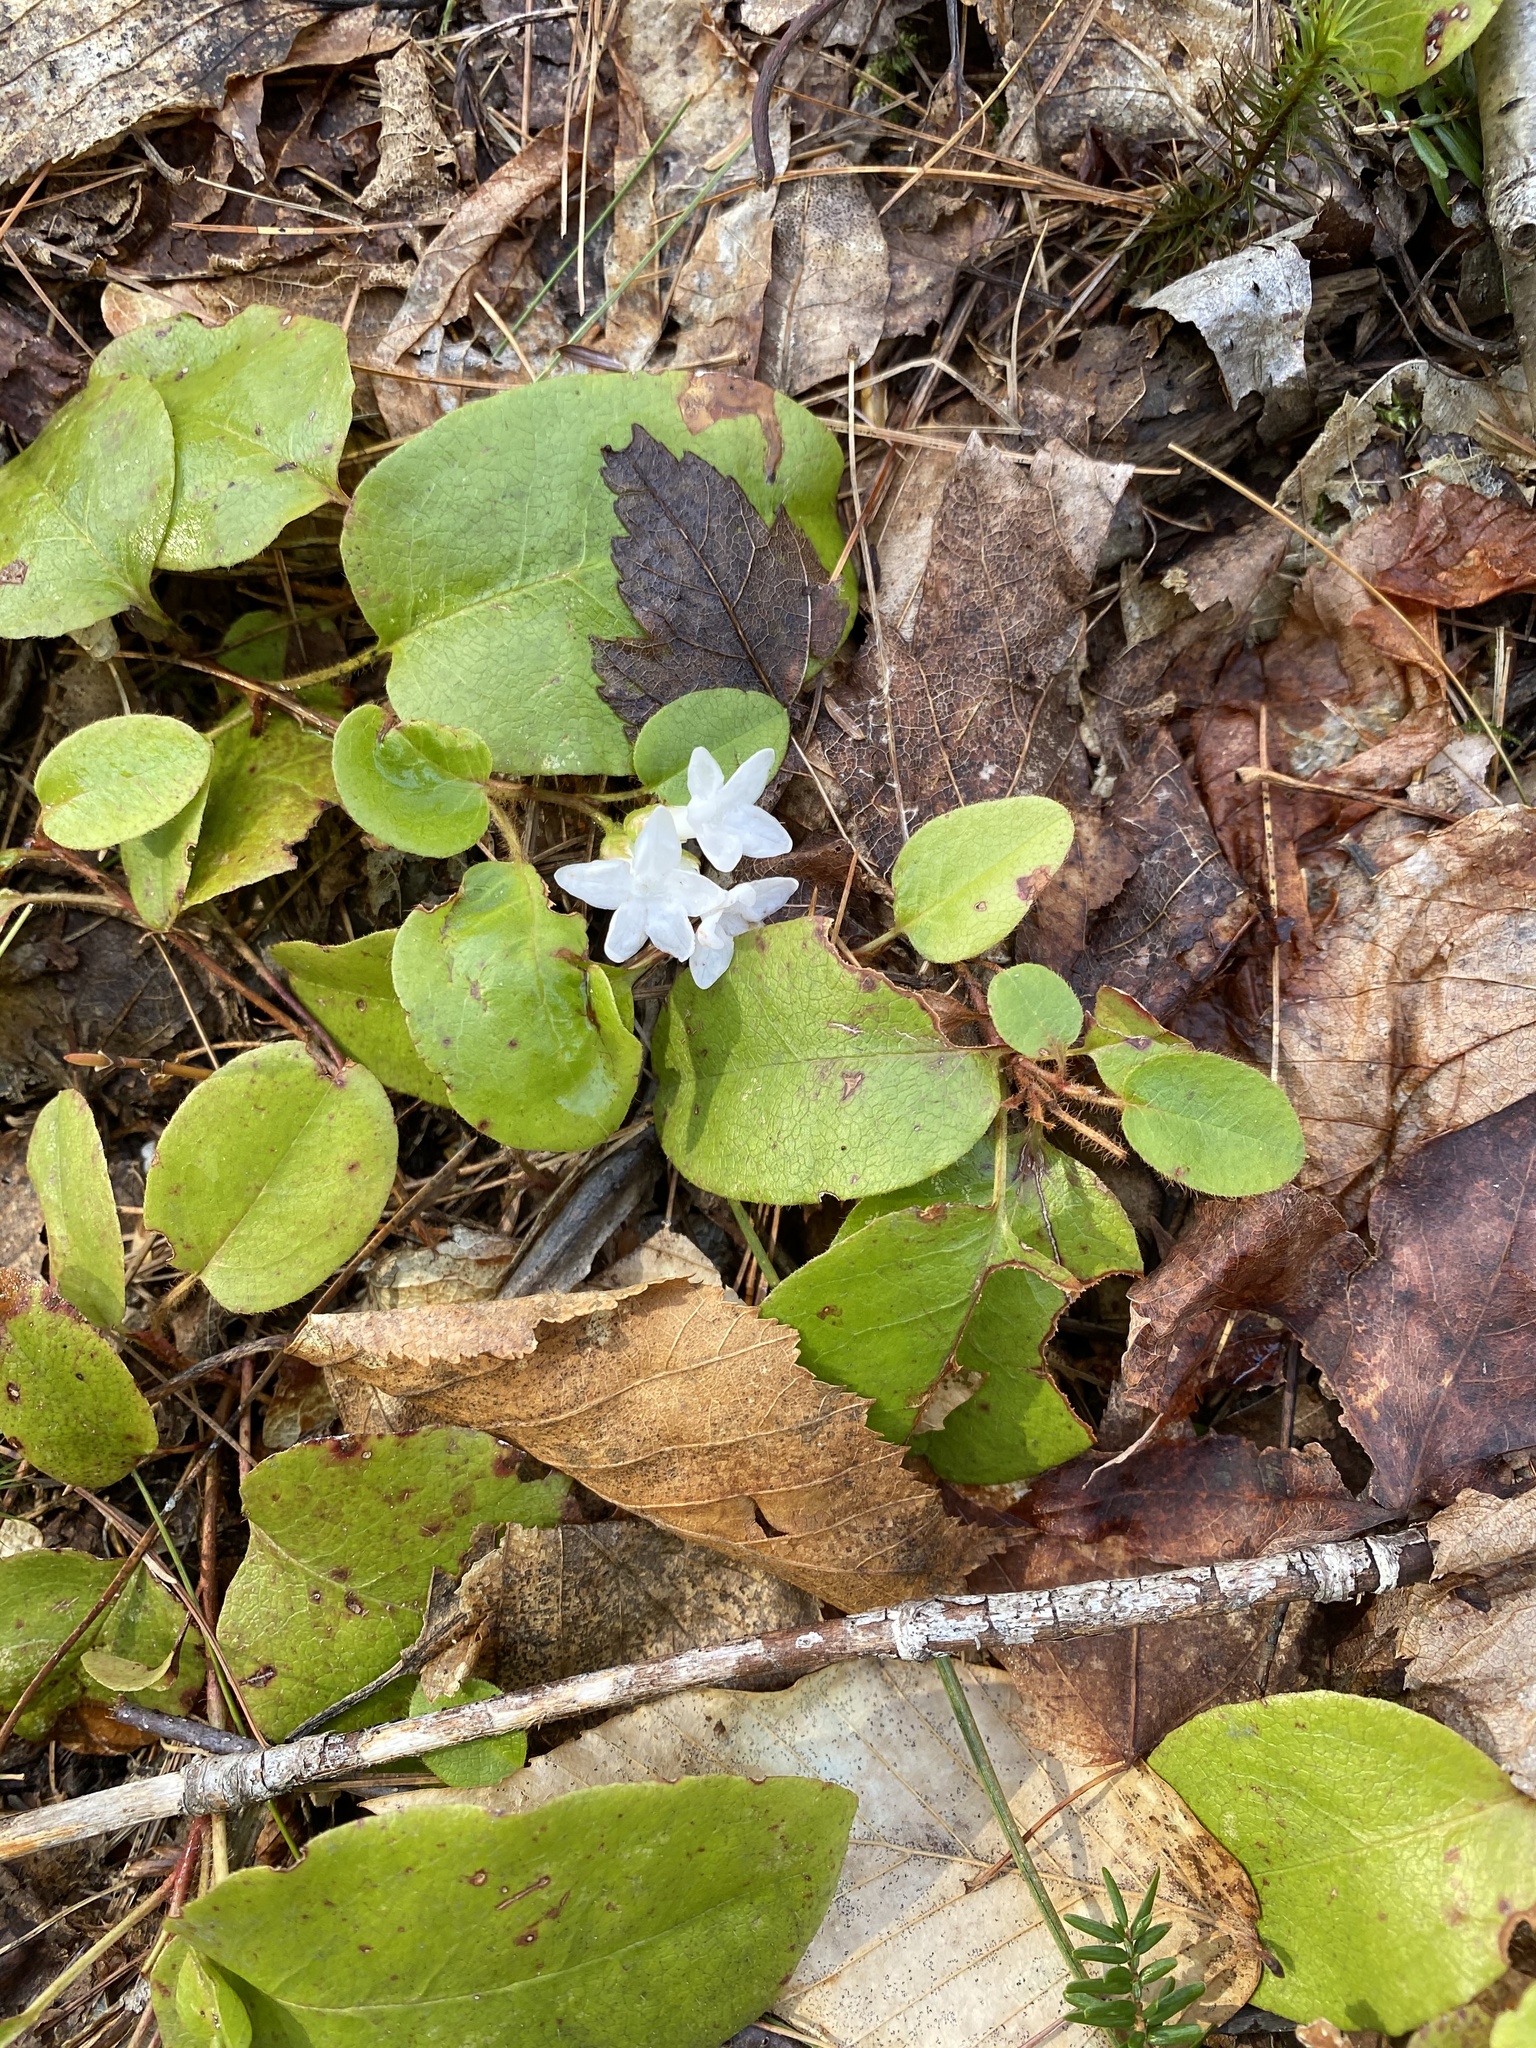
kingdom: Plantae
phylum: Tracheophyta
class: Magnoliopsida
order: Ericales
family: Ericaceae
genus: Epigaea
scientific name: Epigaea repens
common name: Gravelroot
